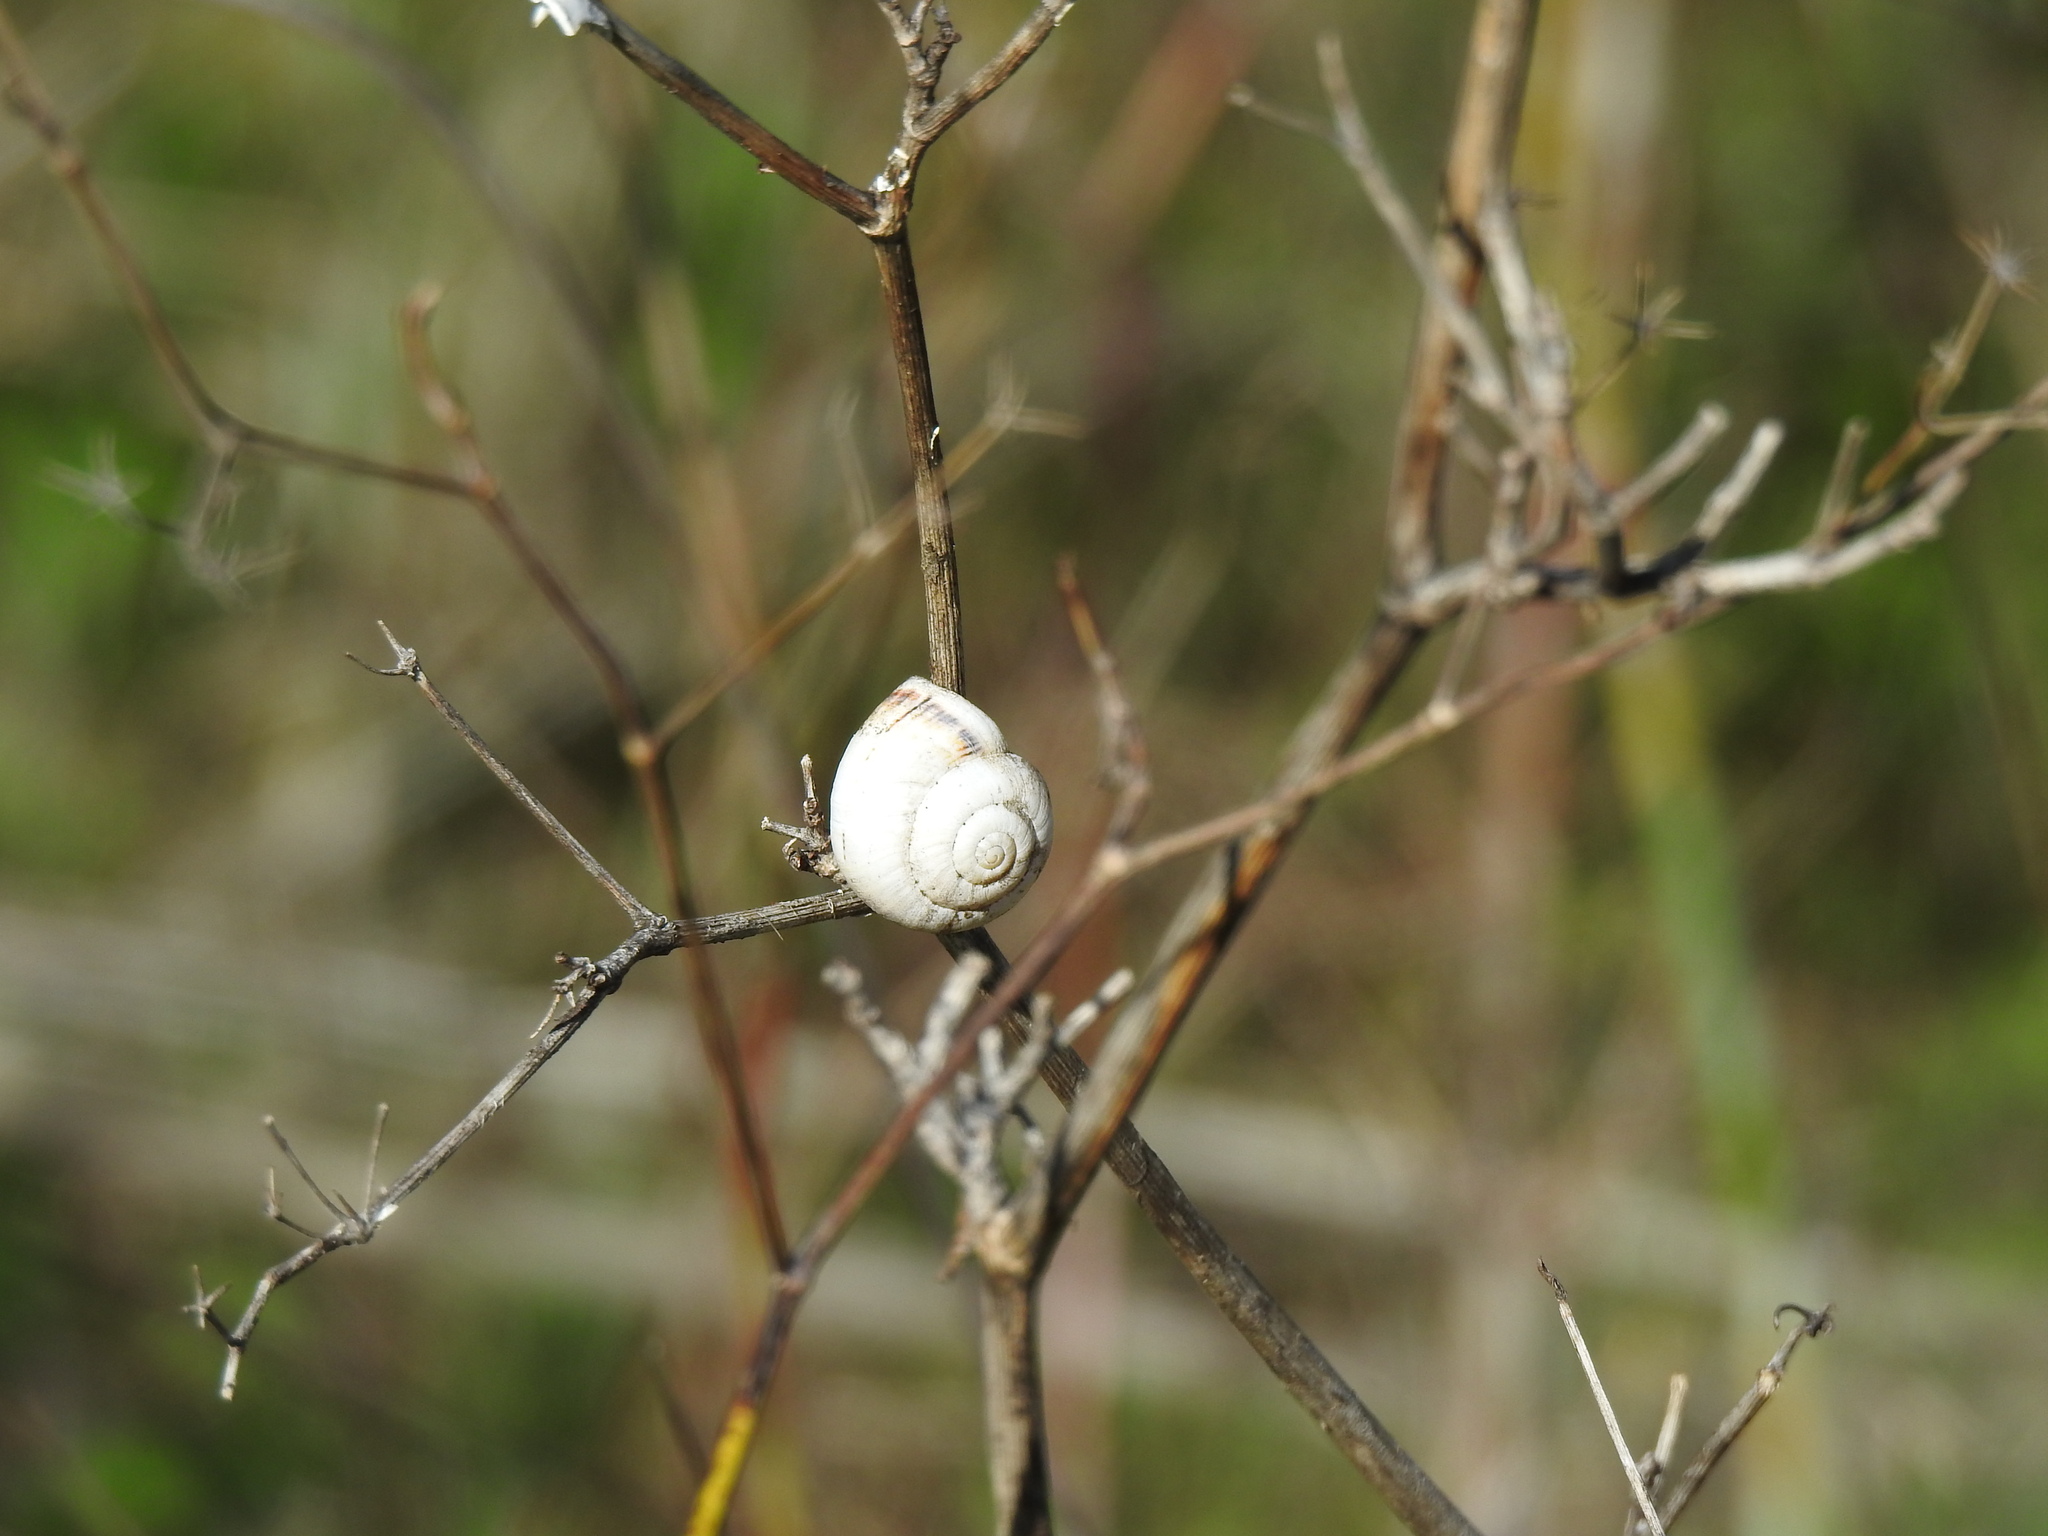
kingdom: Animalia
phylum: Mollusca
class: Gastropoda
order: Stylommatophora
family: Helicidae
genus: Theba
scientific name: Theba pisana
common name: White snail
